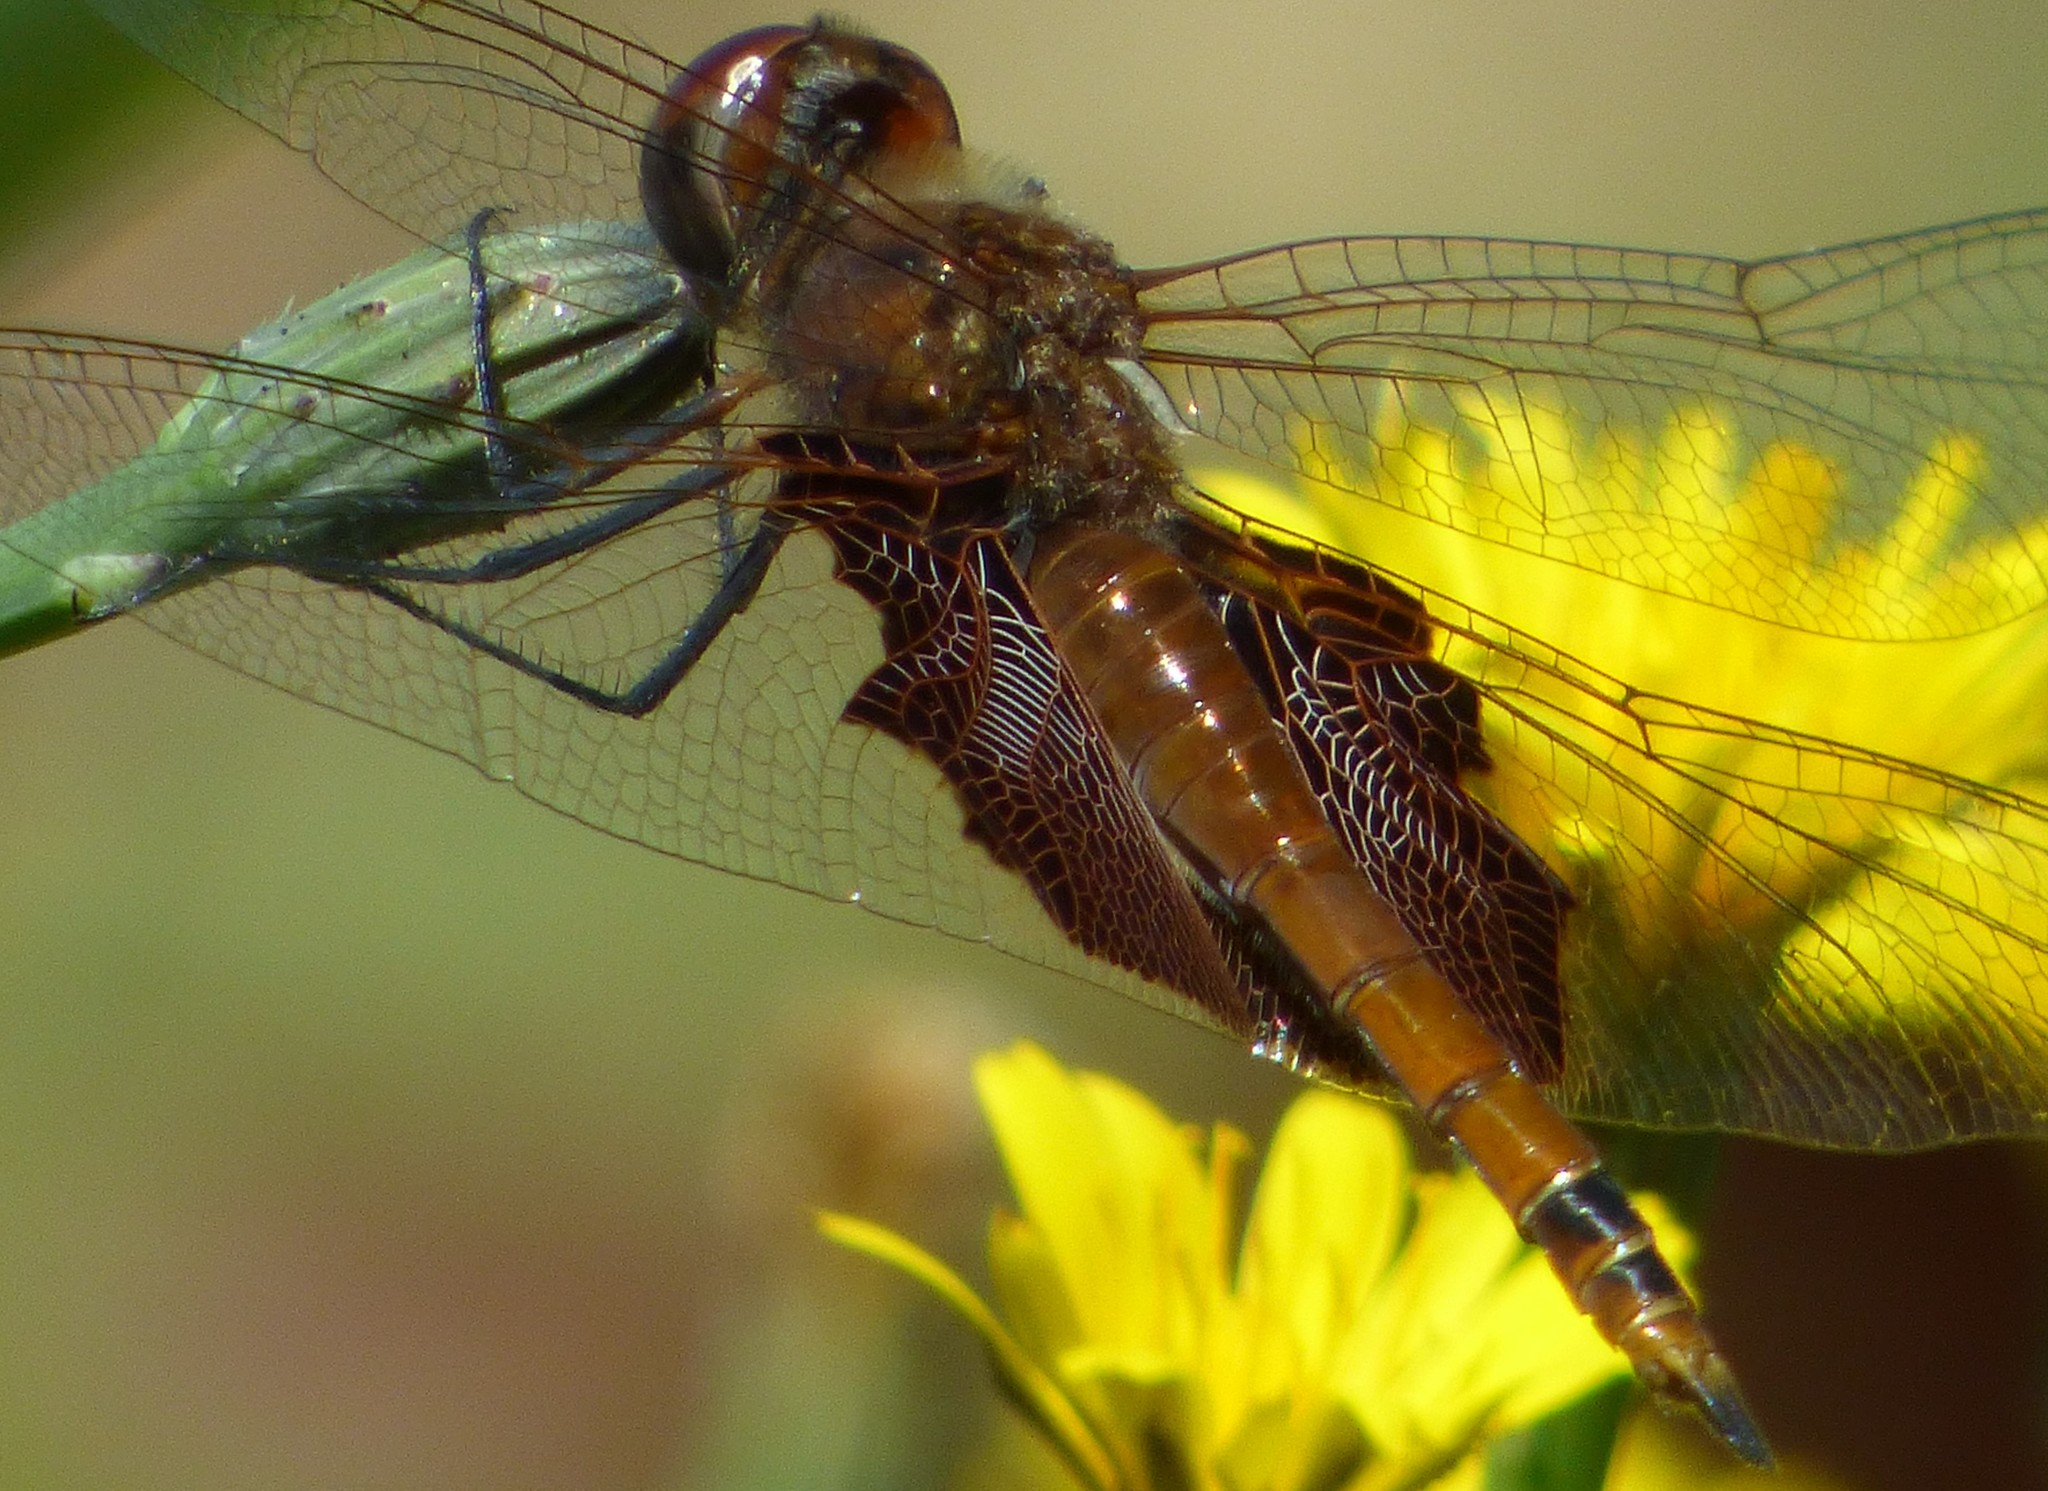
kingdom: Animalia
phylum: Arthropoda
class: Insecta
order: Odonata
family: Libellulidae
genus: Tramea
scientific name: Tramea carolina
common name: Carolina saddlebags
